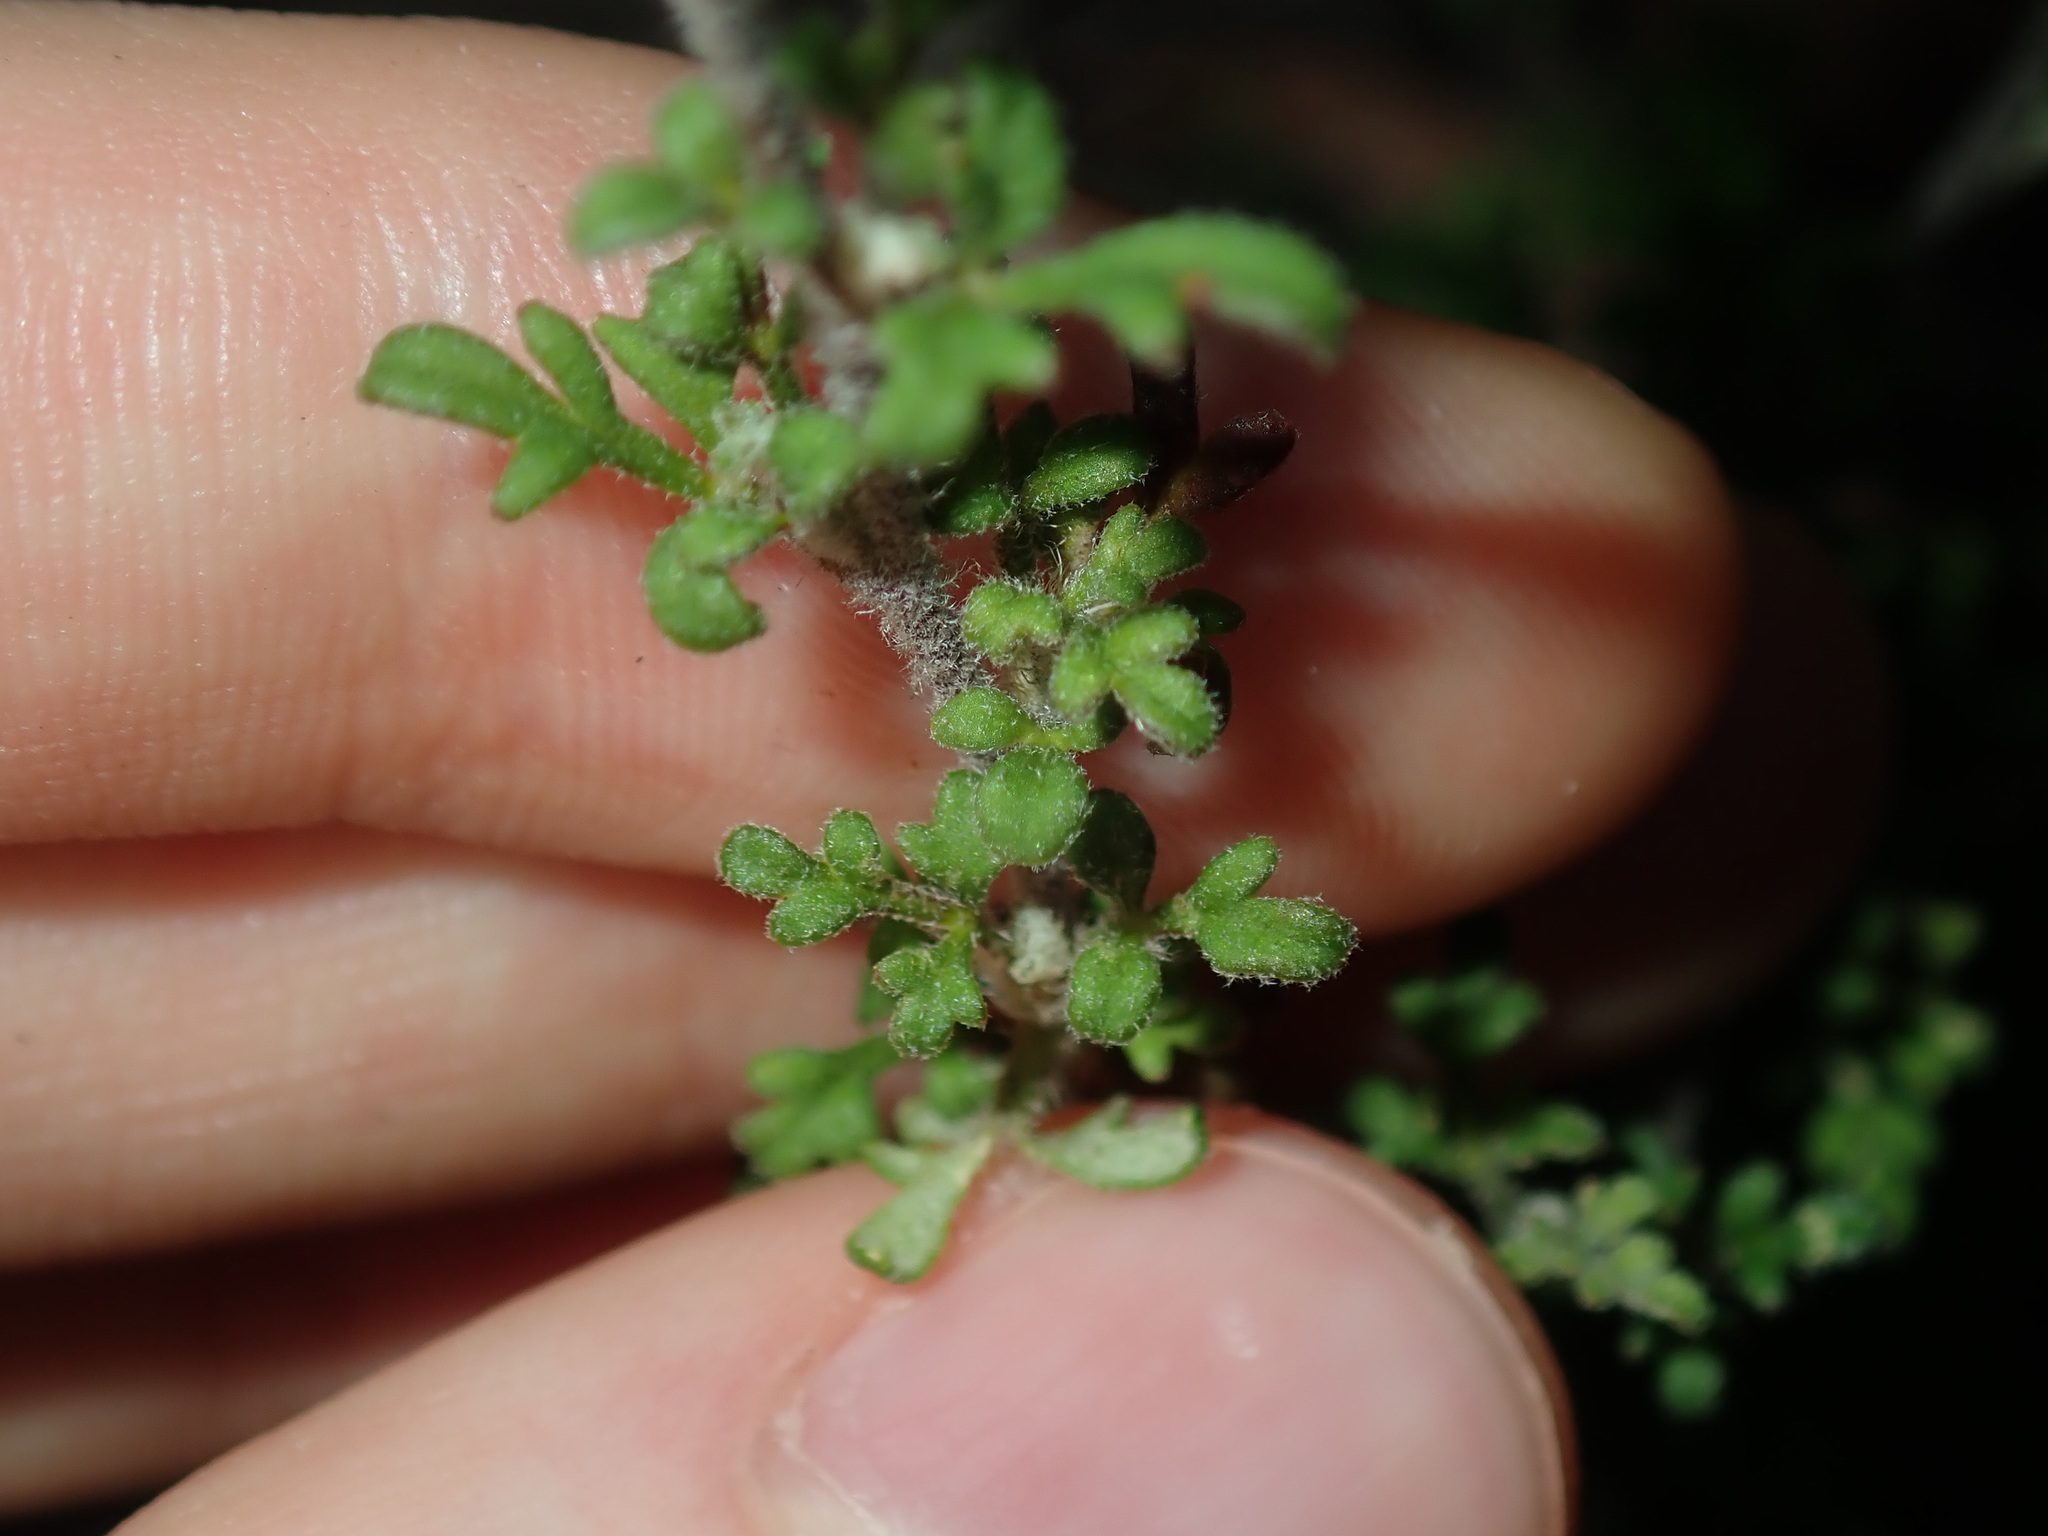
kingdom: Plantae
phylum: Tracheophyta
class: Magnoliopsida
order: Apiales
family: Apiaceae
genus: Xanthosia
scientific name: Xanthosia stellata
